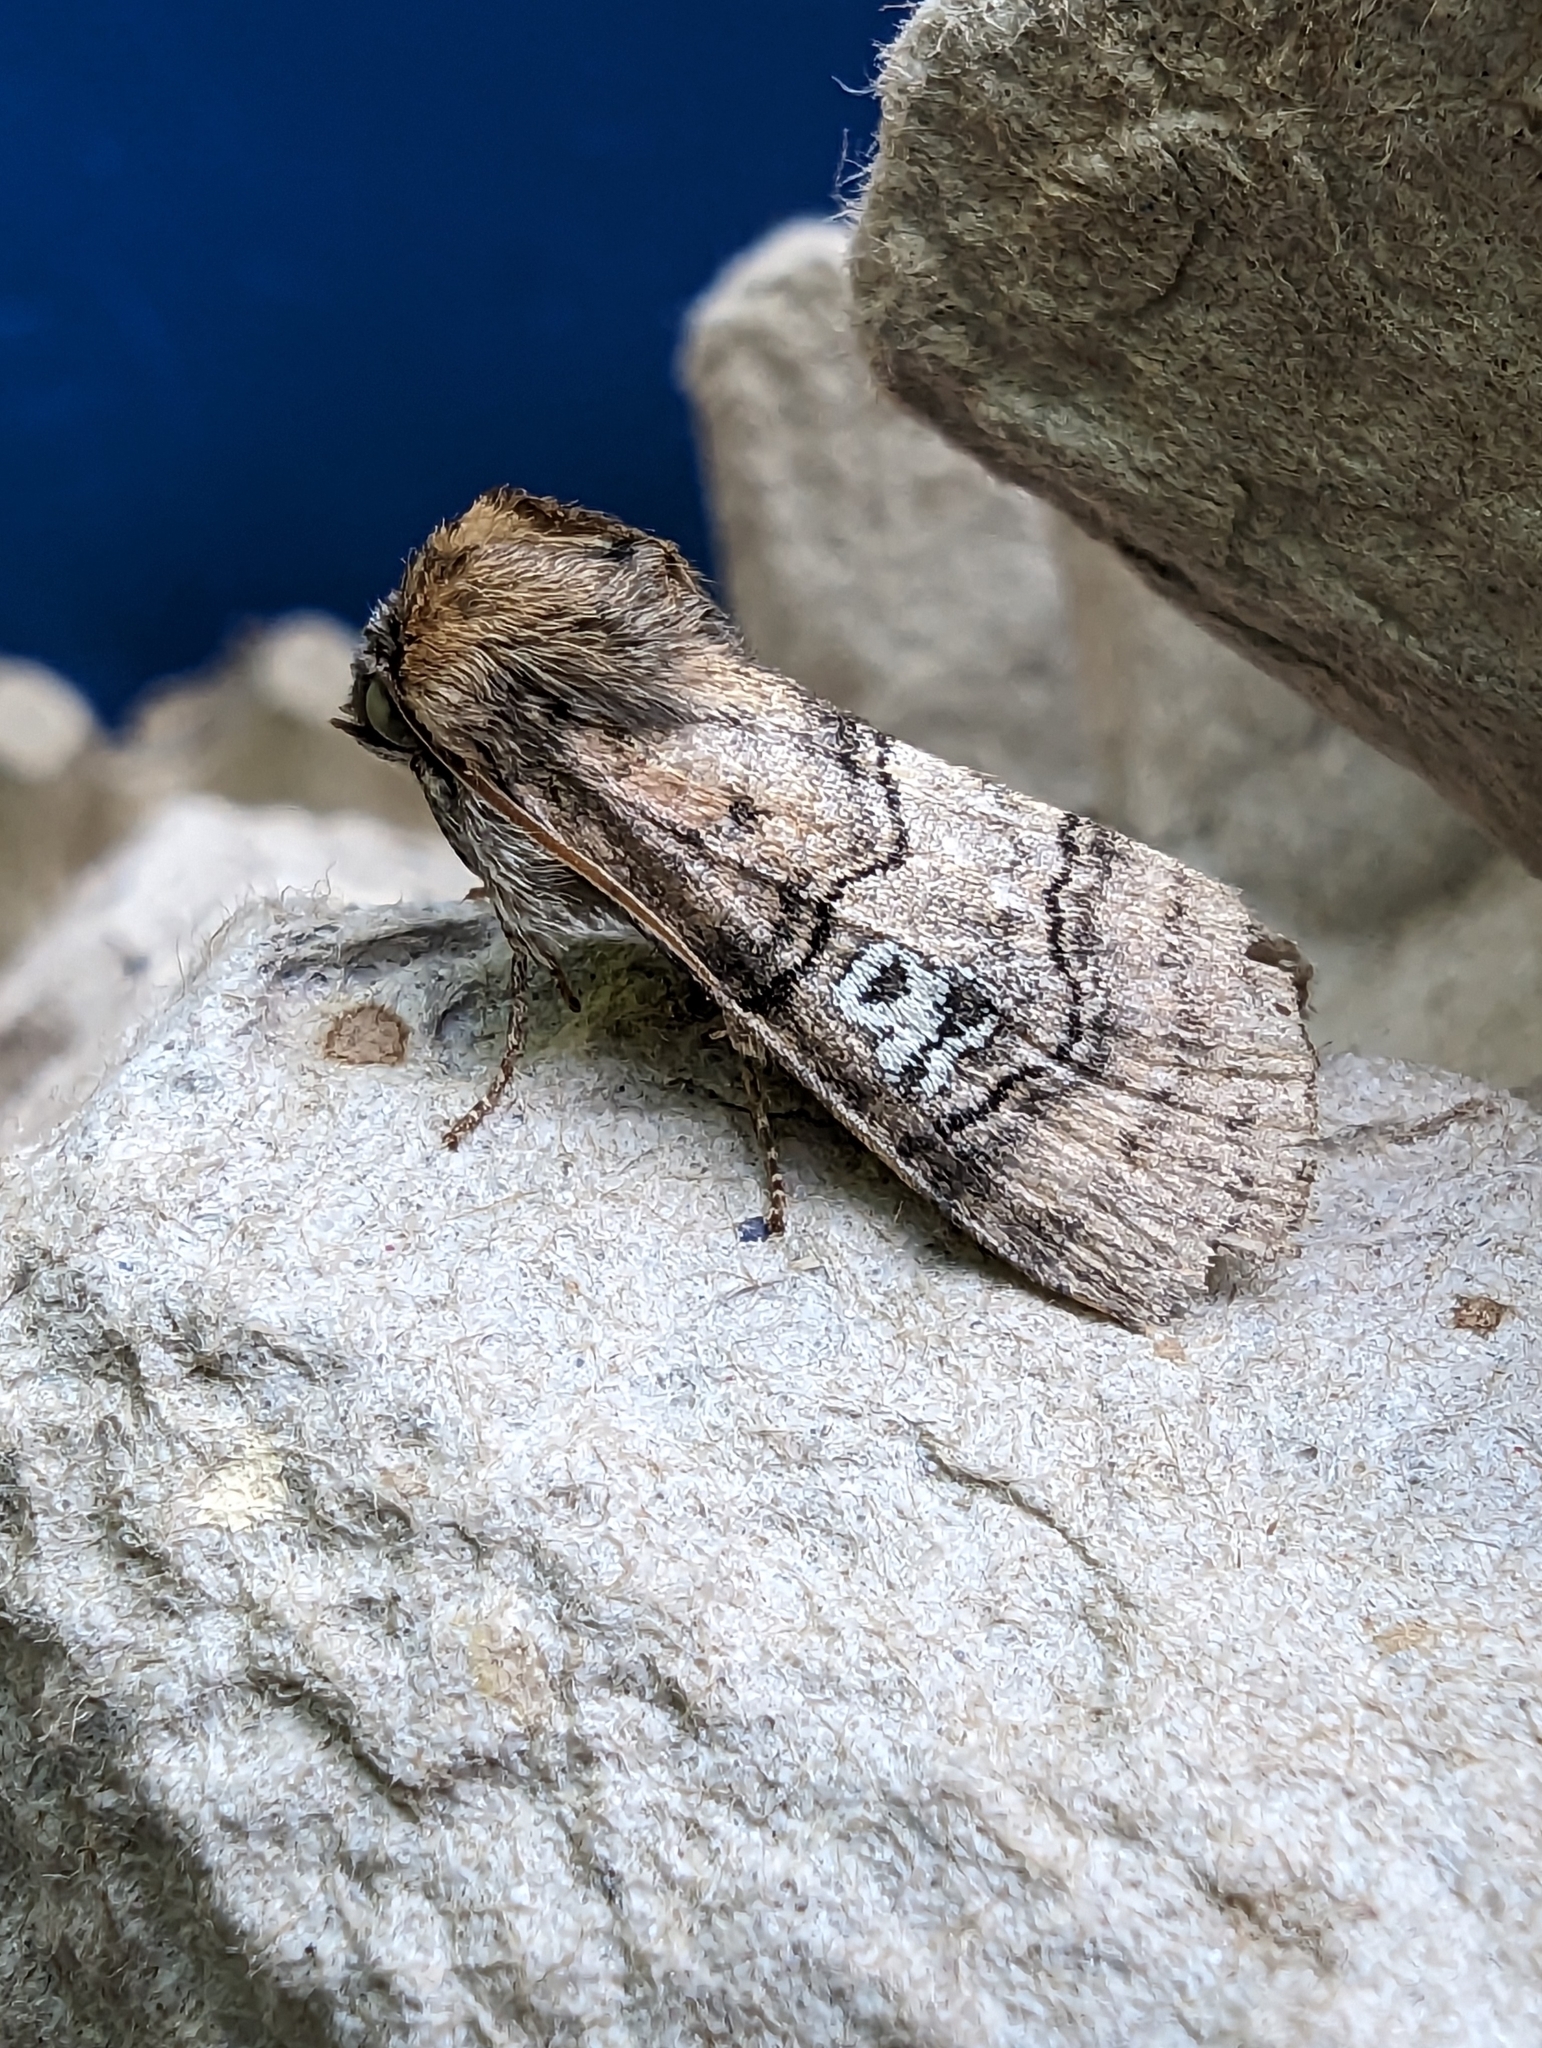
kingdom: Animalia
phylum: Arthropoda
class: Insecta
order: Lepidoptera
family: Drepanidae
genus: Tethea
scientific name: Tethea ocularis
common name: Figure of eighty
